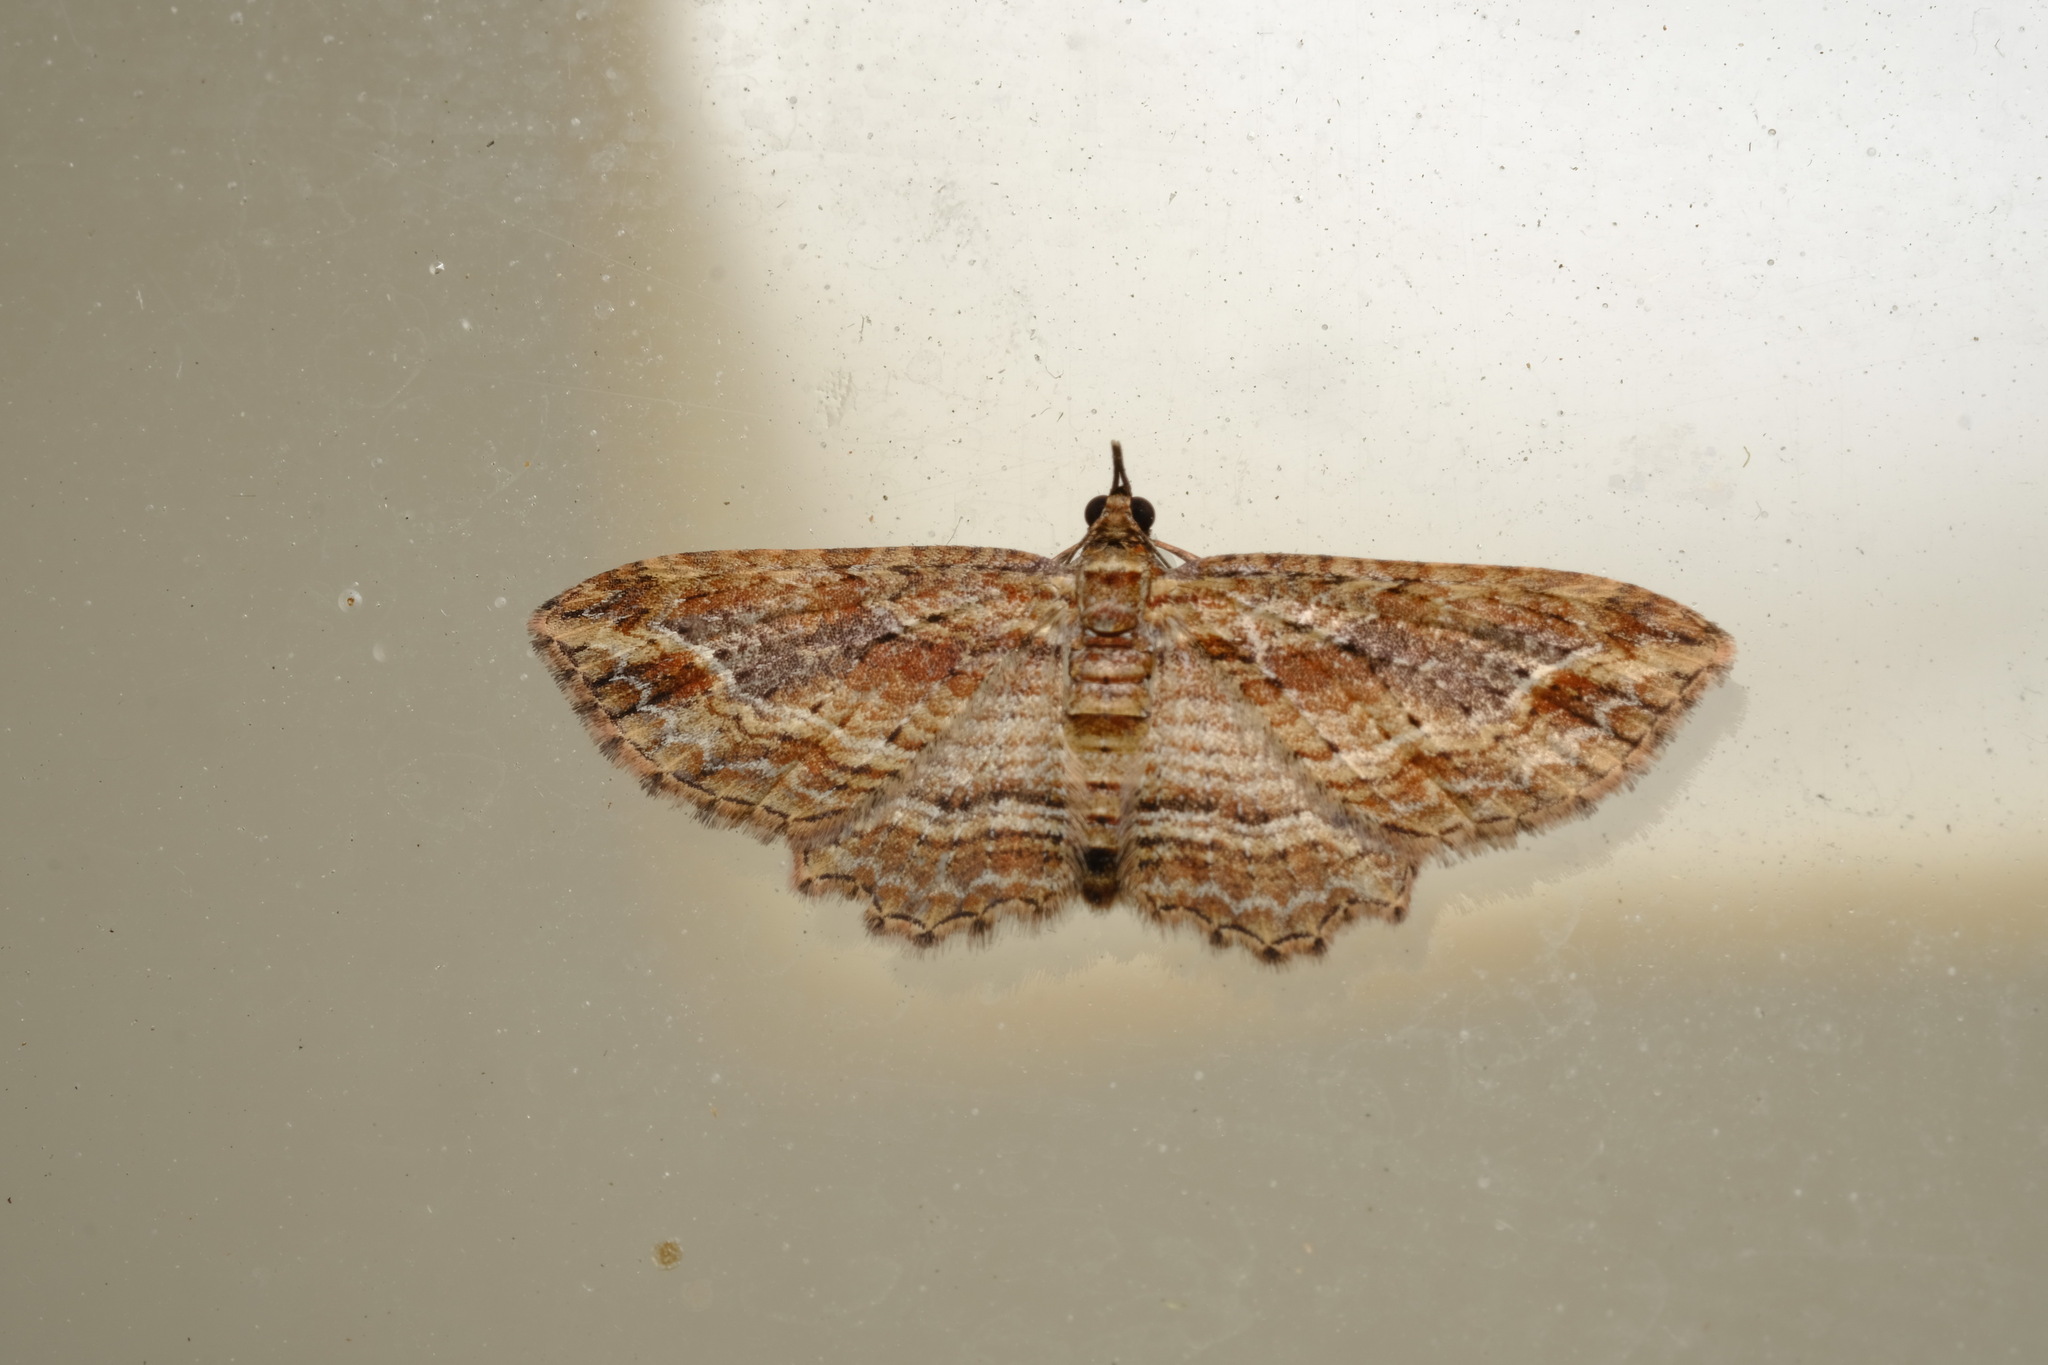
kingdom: Animalia
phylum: Arthropoda
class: Insecta
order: Lepidoptera
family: Geometridae
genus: Chloroclystis
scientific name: Chloroclystis filata
